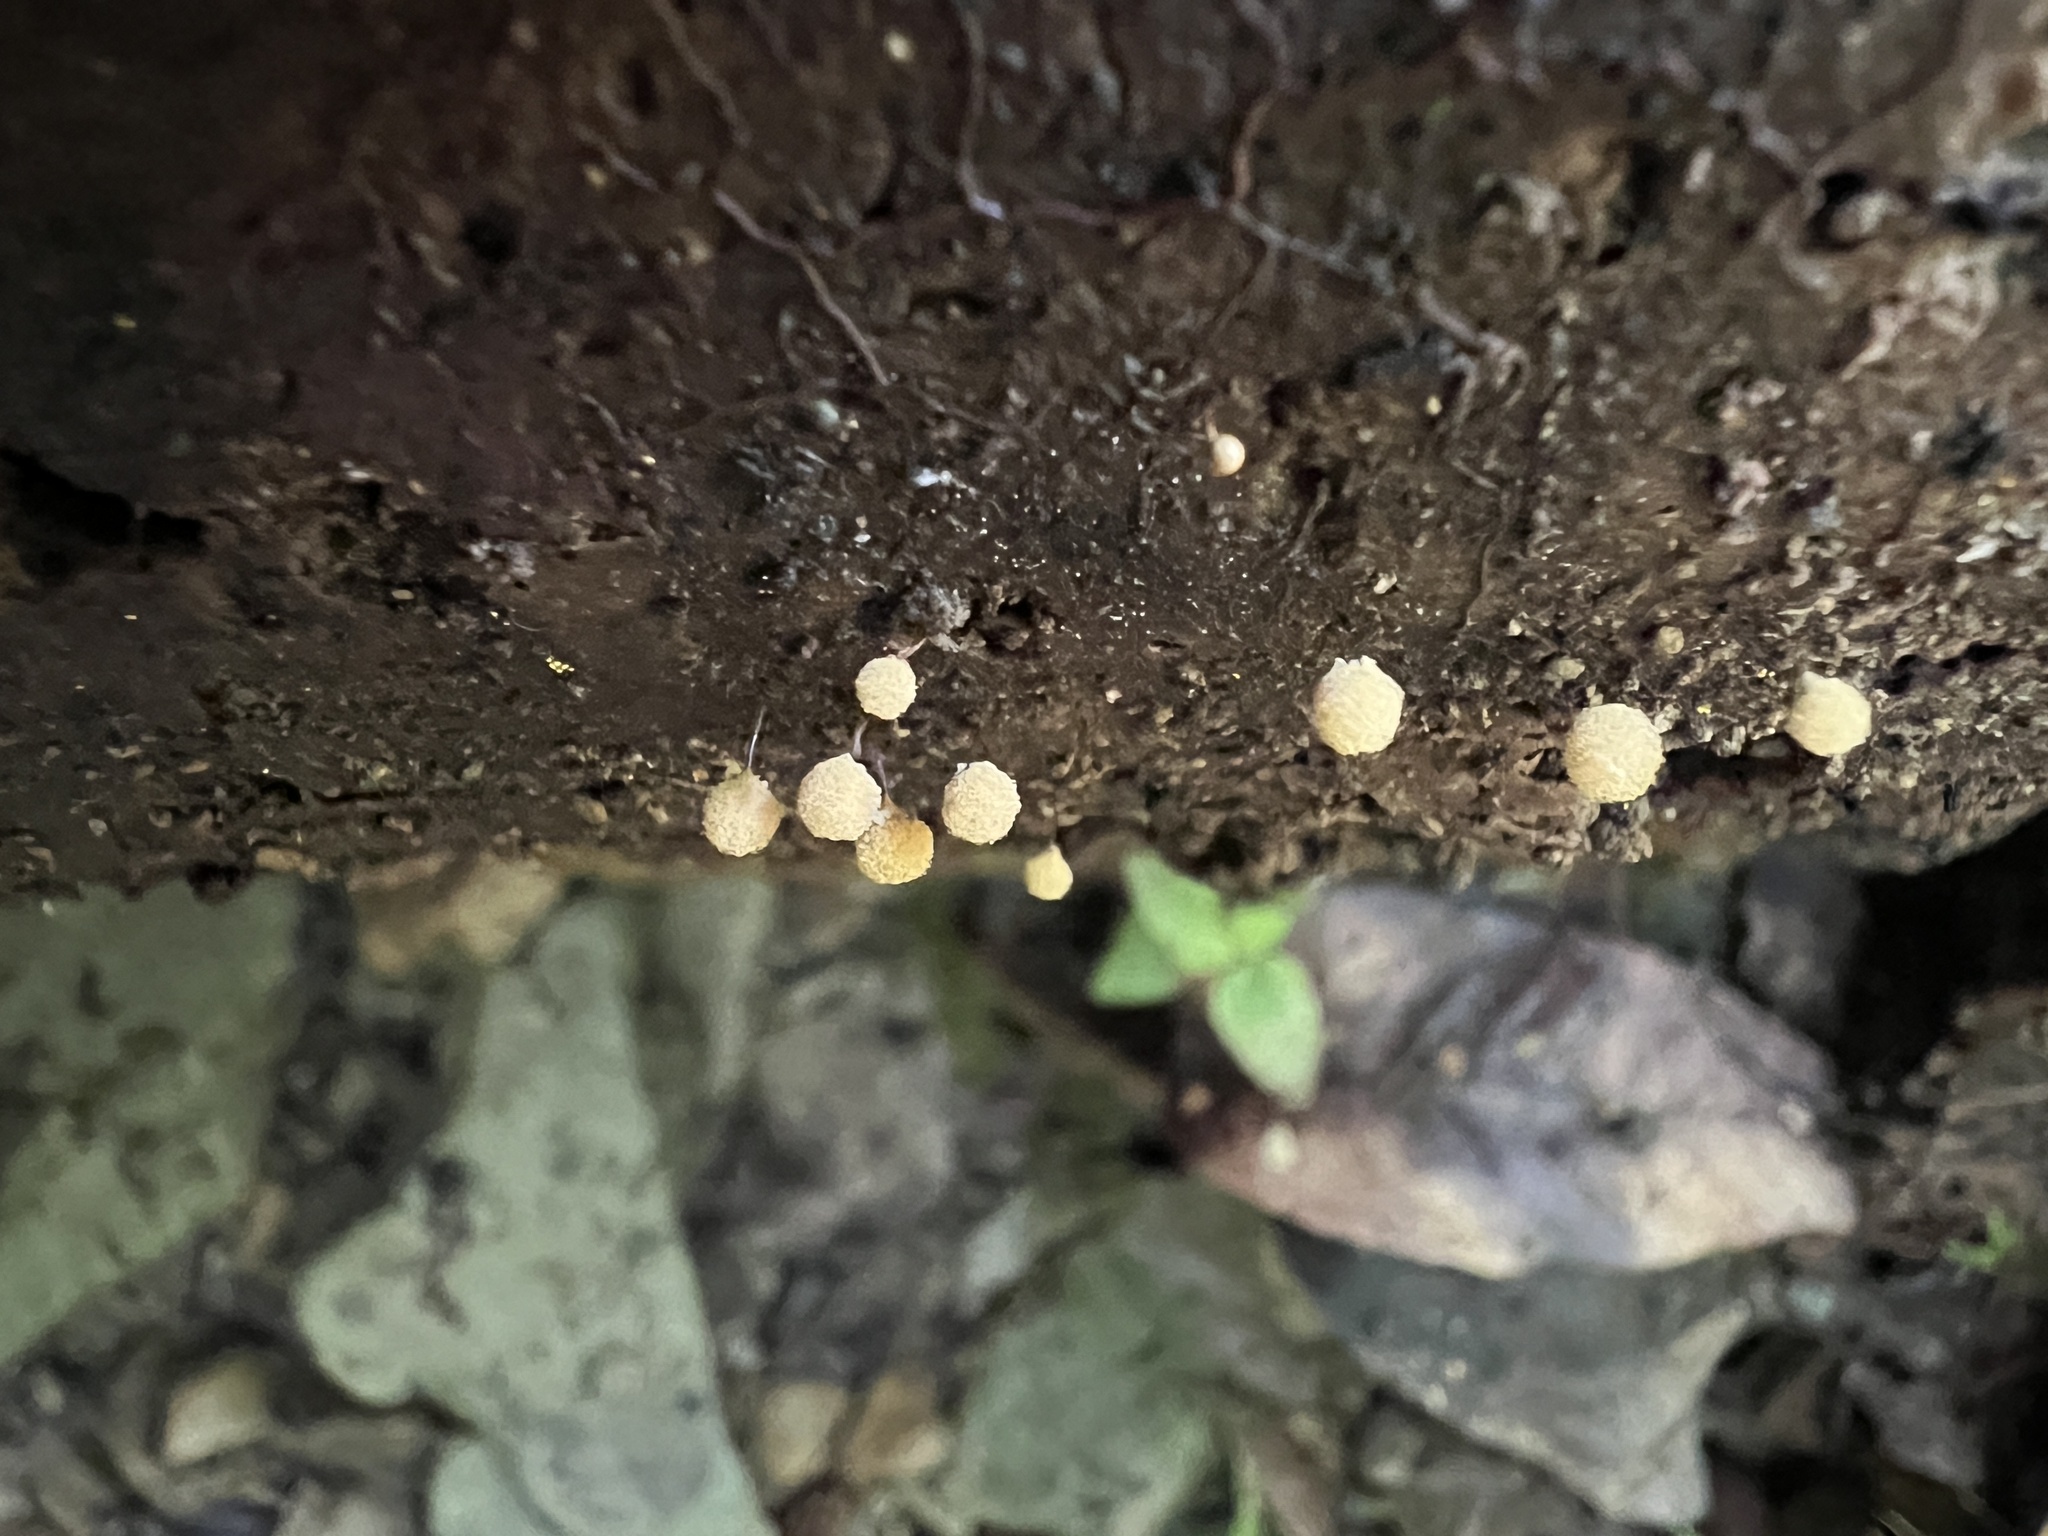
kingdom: Protozoa
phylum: Mycetozoa
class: Myxomycetes
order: Trichiales
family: Arcyriaceae
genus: Hemitrichia
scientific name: Hemitrichia calyculata
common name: Push pin slime mold
